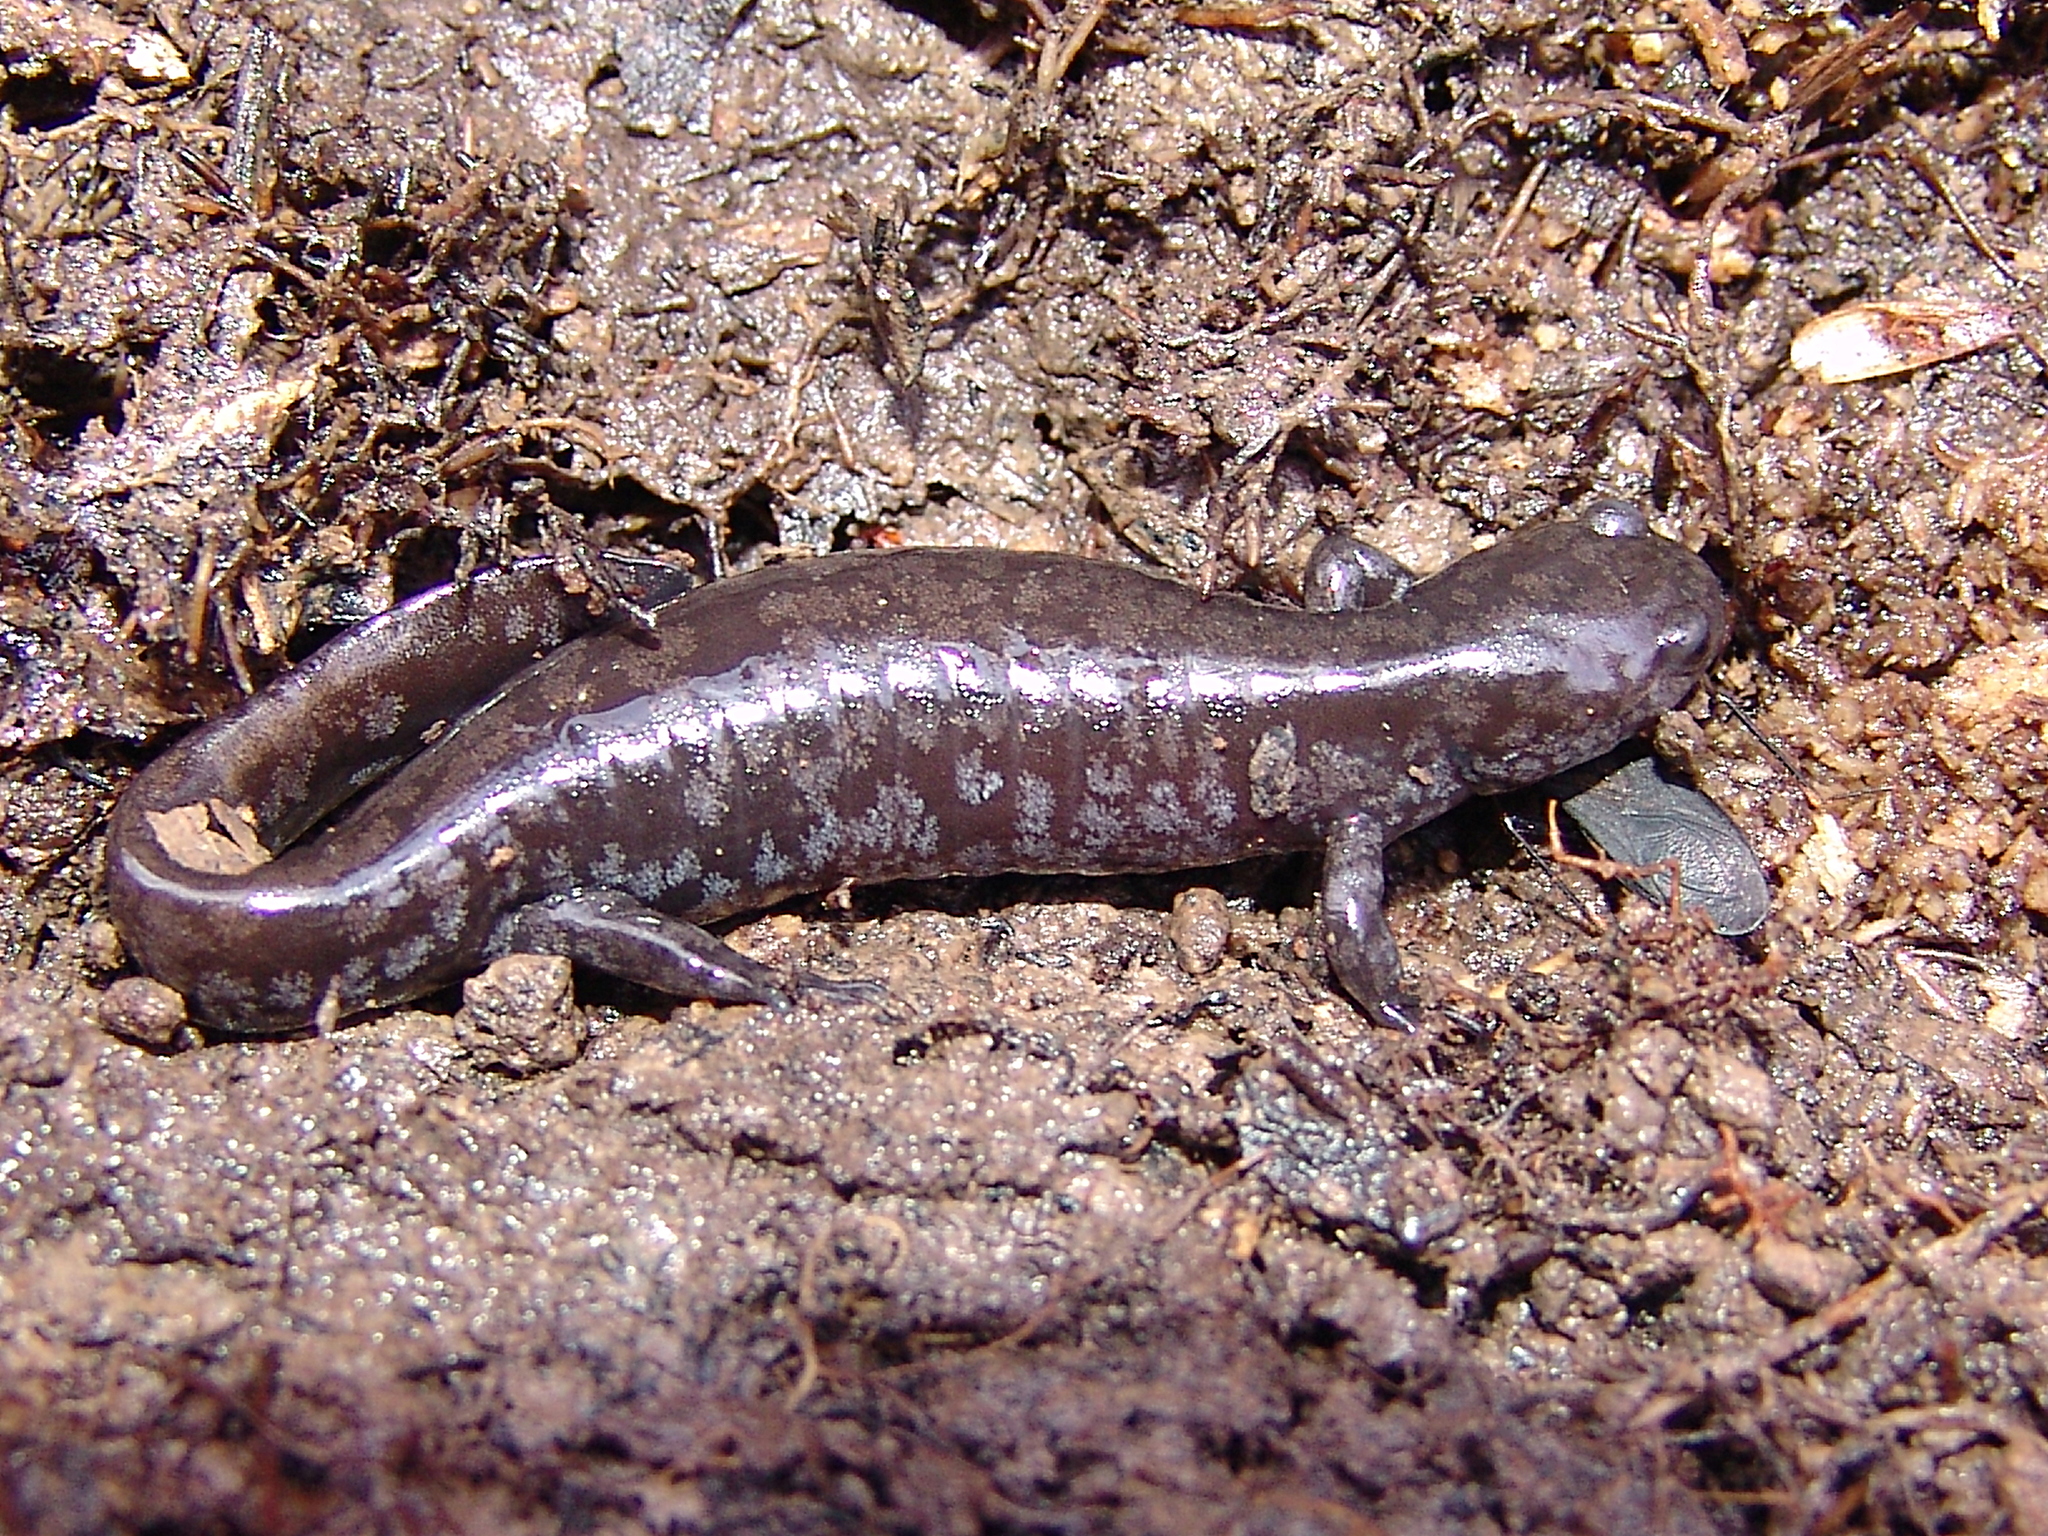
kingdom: Animalia
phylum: Chordata
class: Amphibia
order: Caudata
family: Ambystomatidae
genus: Ambystoma
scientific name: Ambystoma texanum
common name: Small-mouth salamander
